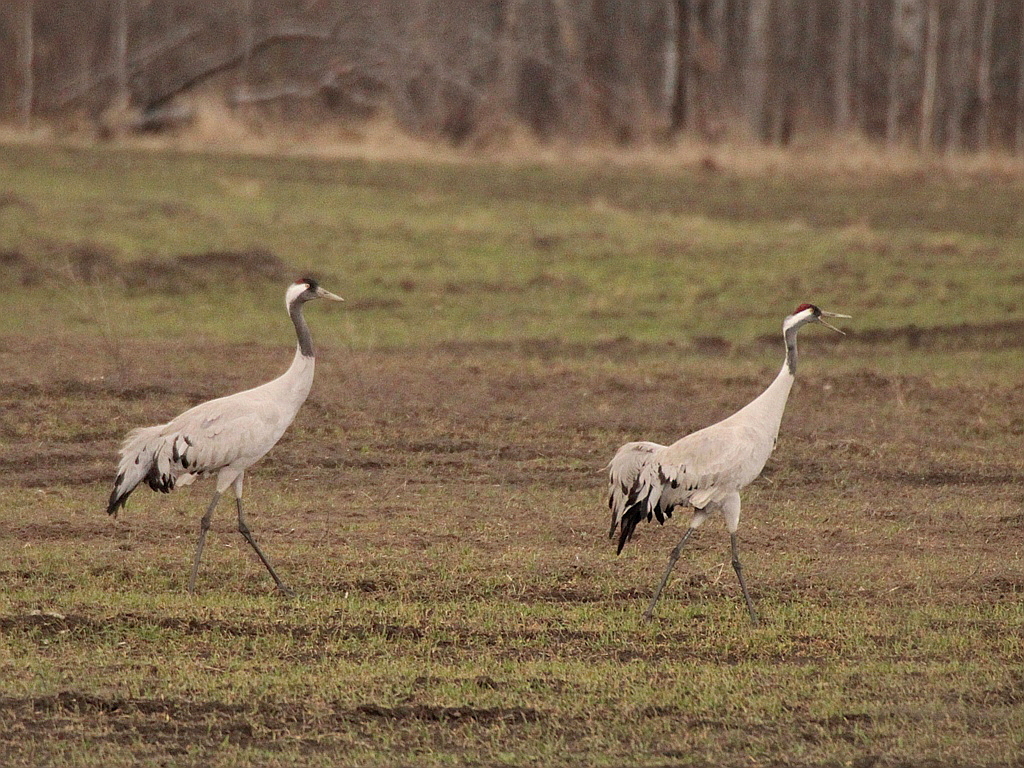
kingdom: Animalia
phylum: Chordata
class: Aves
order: Gruiformes
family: Gruidae
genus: Grus
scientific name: Grus grus
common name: Common crane
